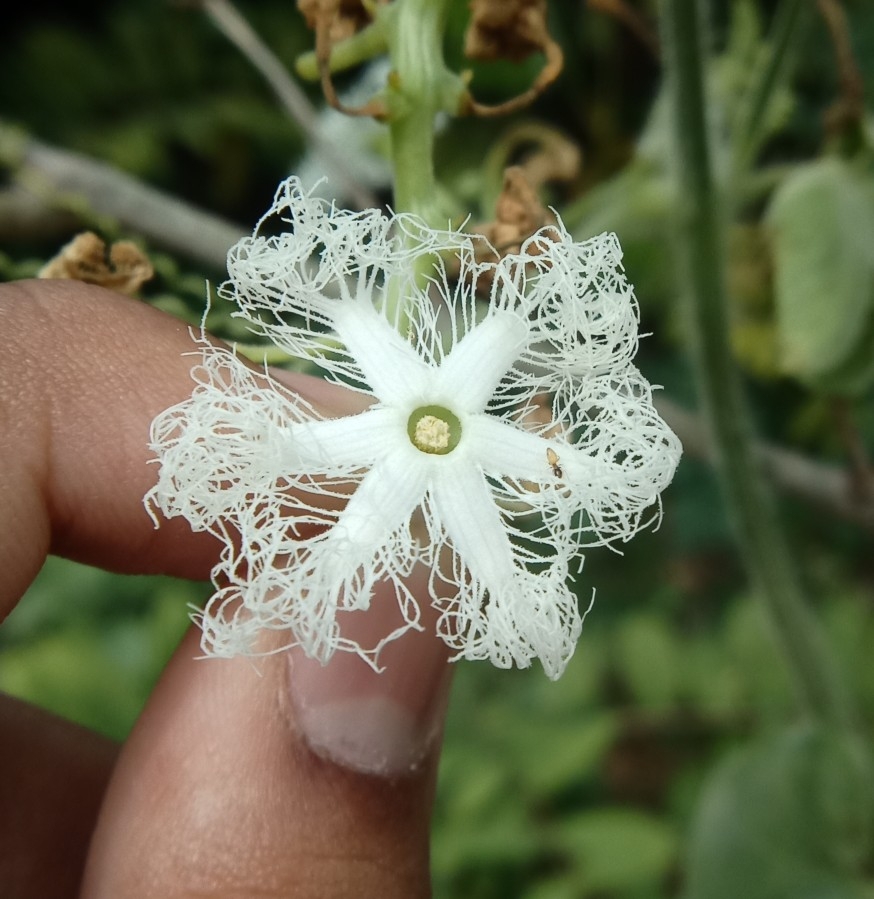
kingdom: Plantae
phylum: Tracheophyta
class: Magnoliopsida
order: Cucurbitales
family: Cucurbitaceae
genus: Trichosanthes
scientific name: Trichosanthes cucumerina
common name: Snakegourd
